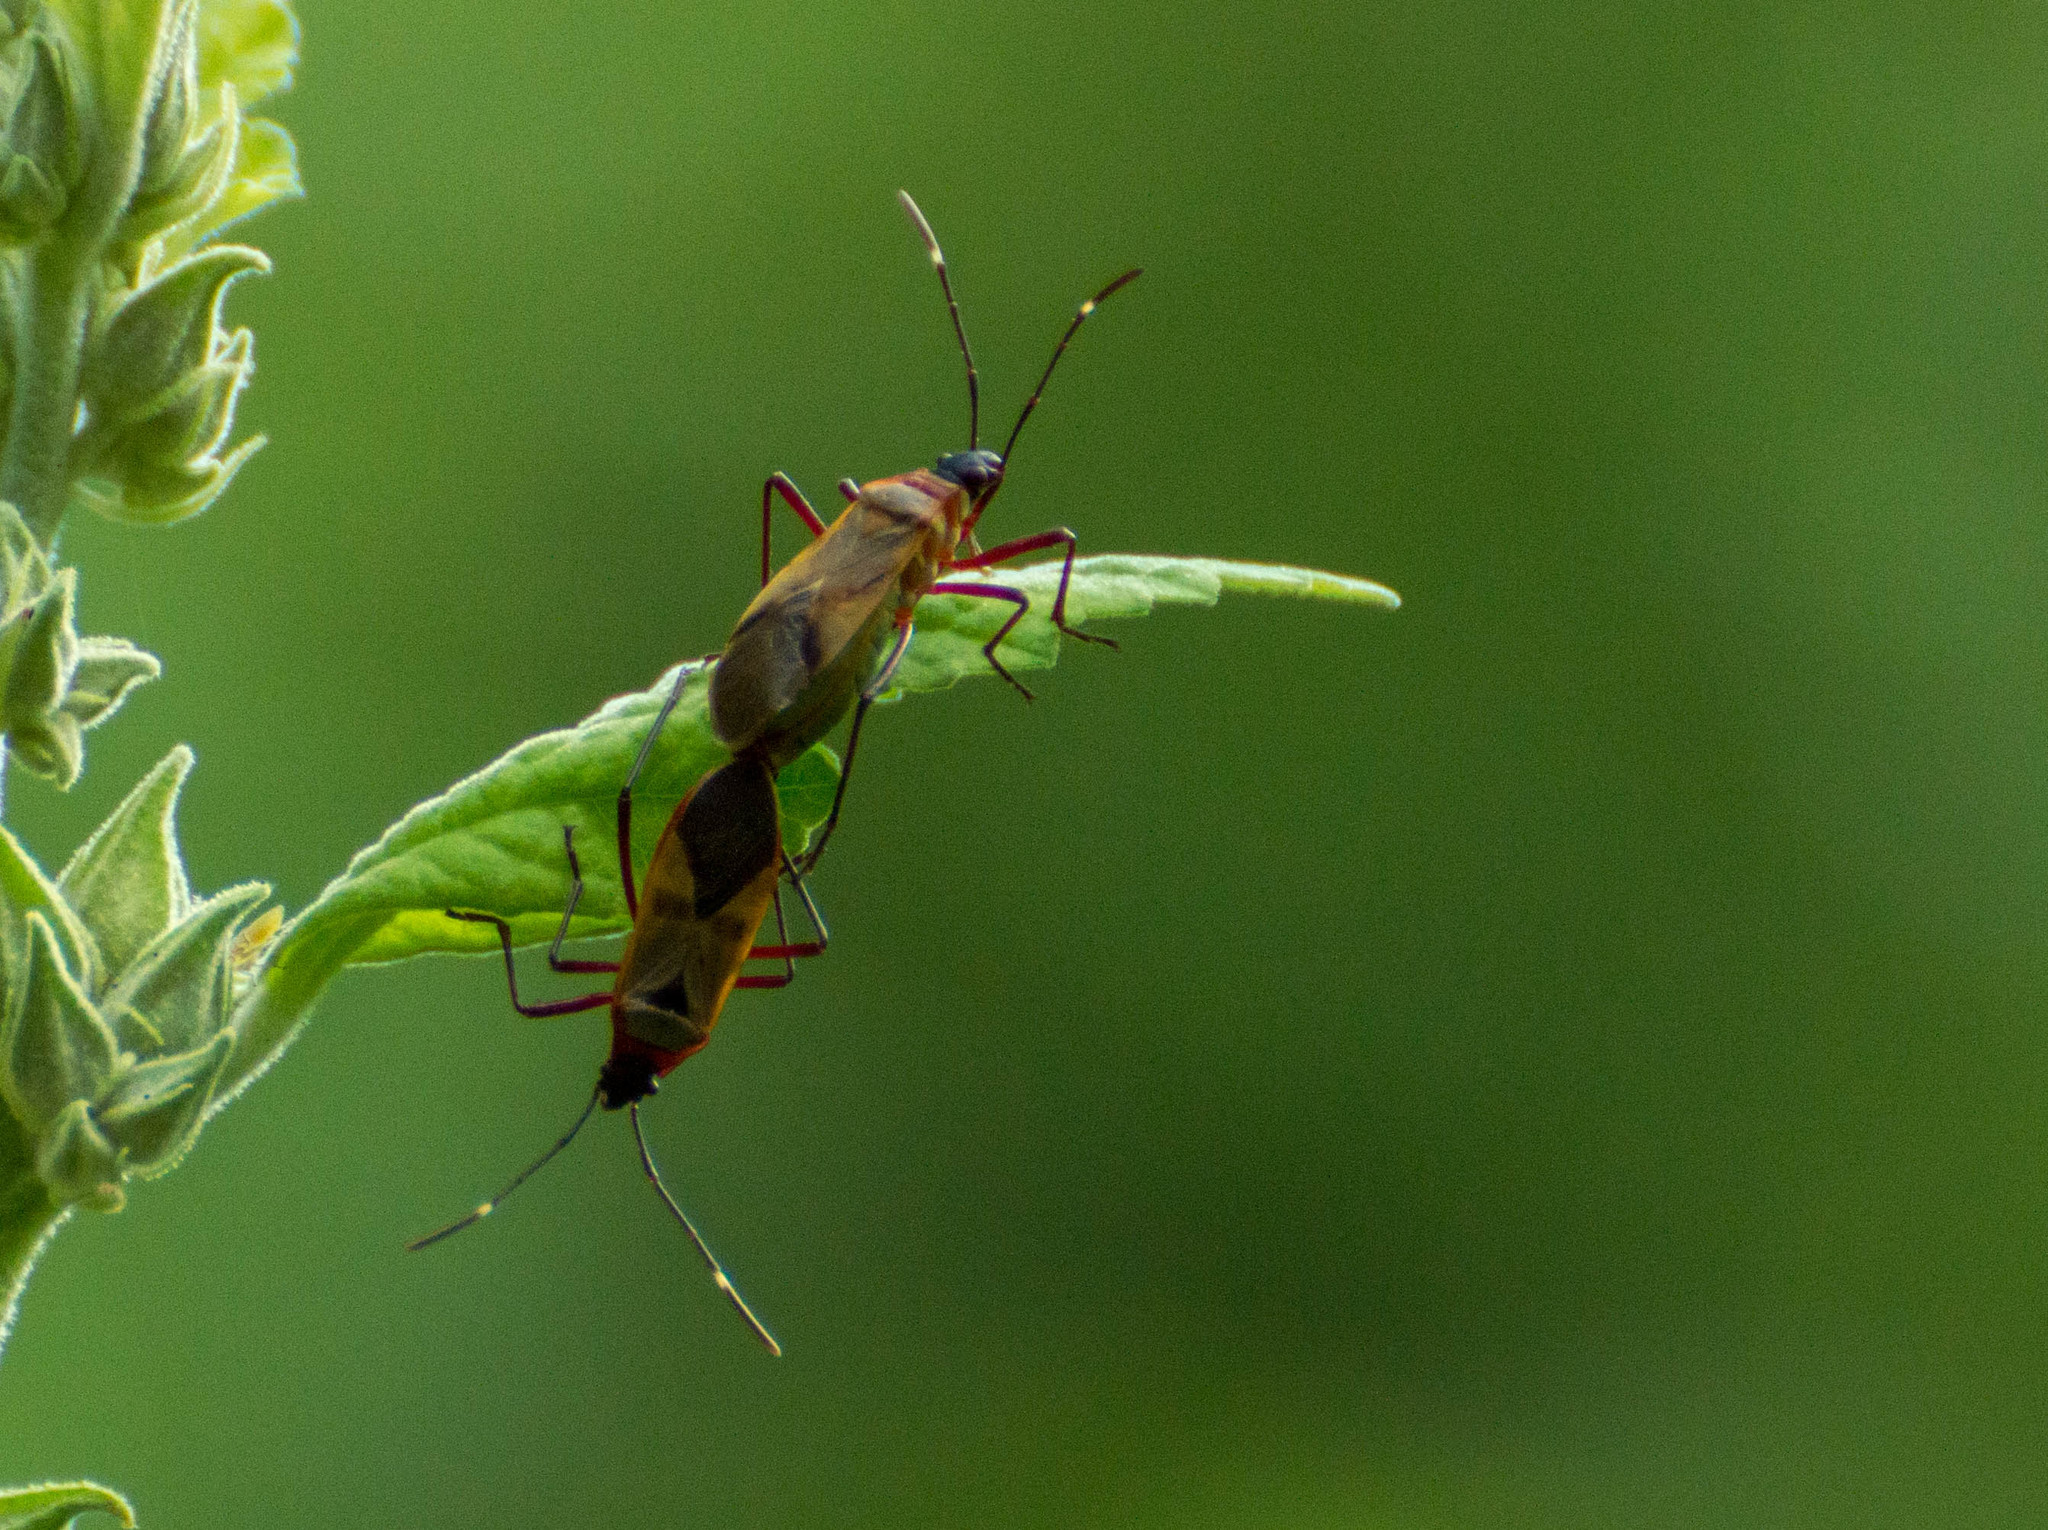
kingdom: Animalia
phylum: Arthropoda
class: Insecta
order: Hemiptera
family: Pyrrhocoridae
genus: Dysdercus
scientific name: Dysdercus
